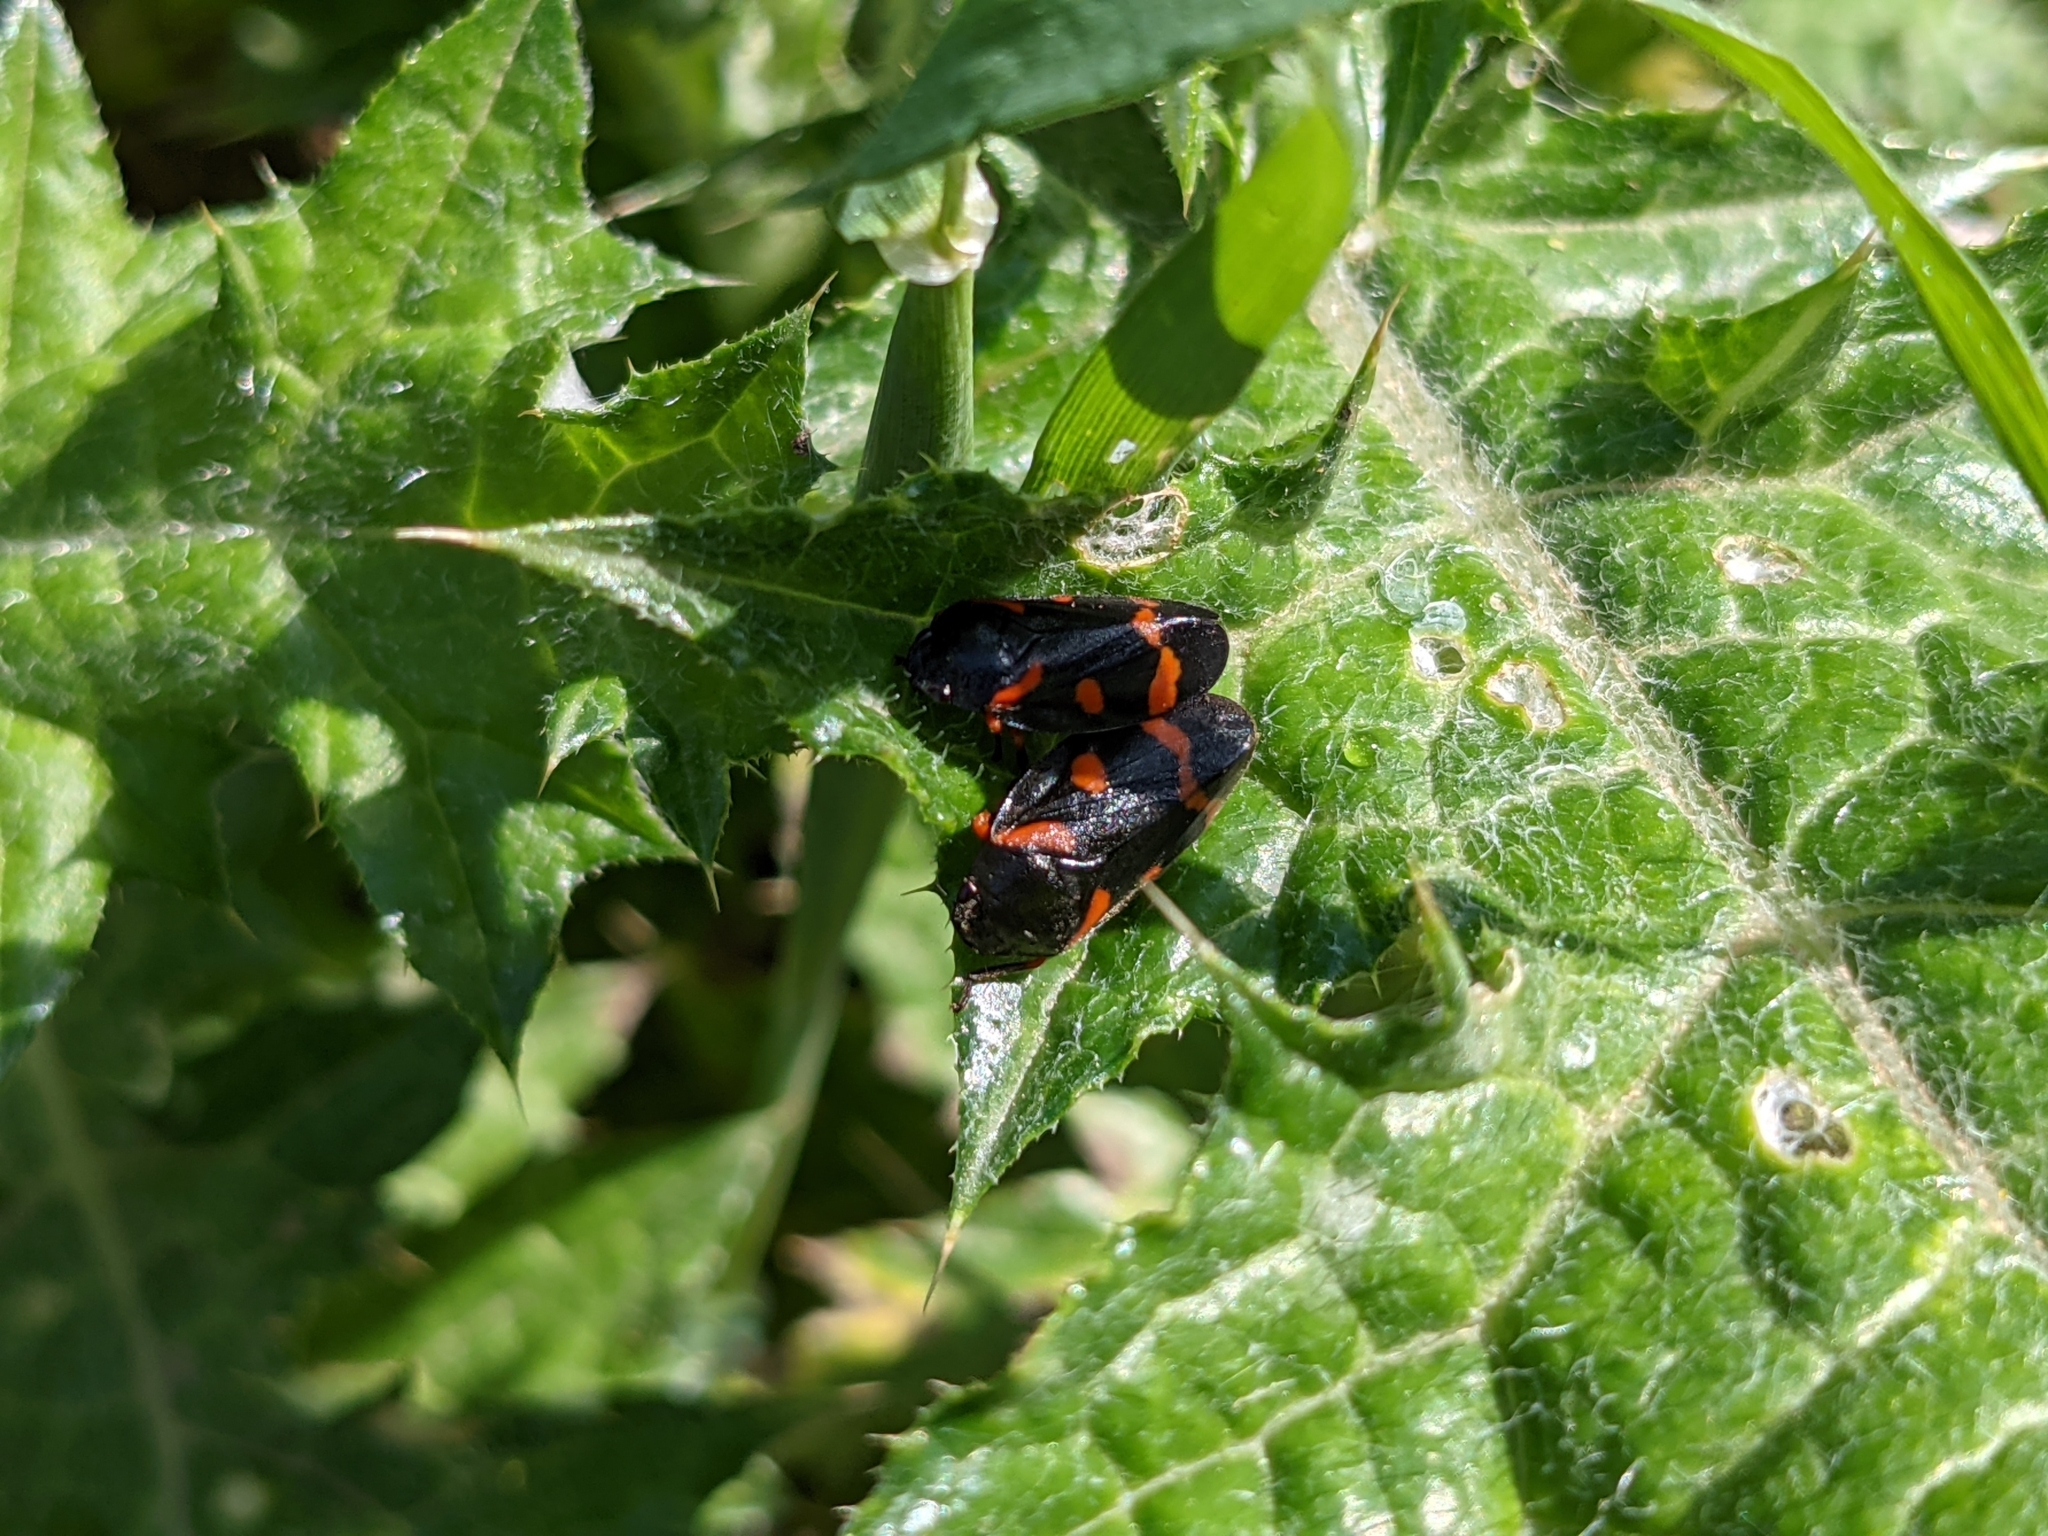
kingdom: Animalia
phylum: Arthropoda
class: Insecta
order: Hemiptera
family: Cercopidae
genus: Cercopis
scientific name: Cercopis intermedia
